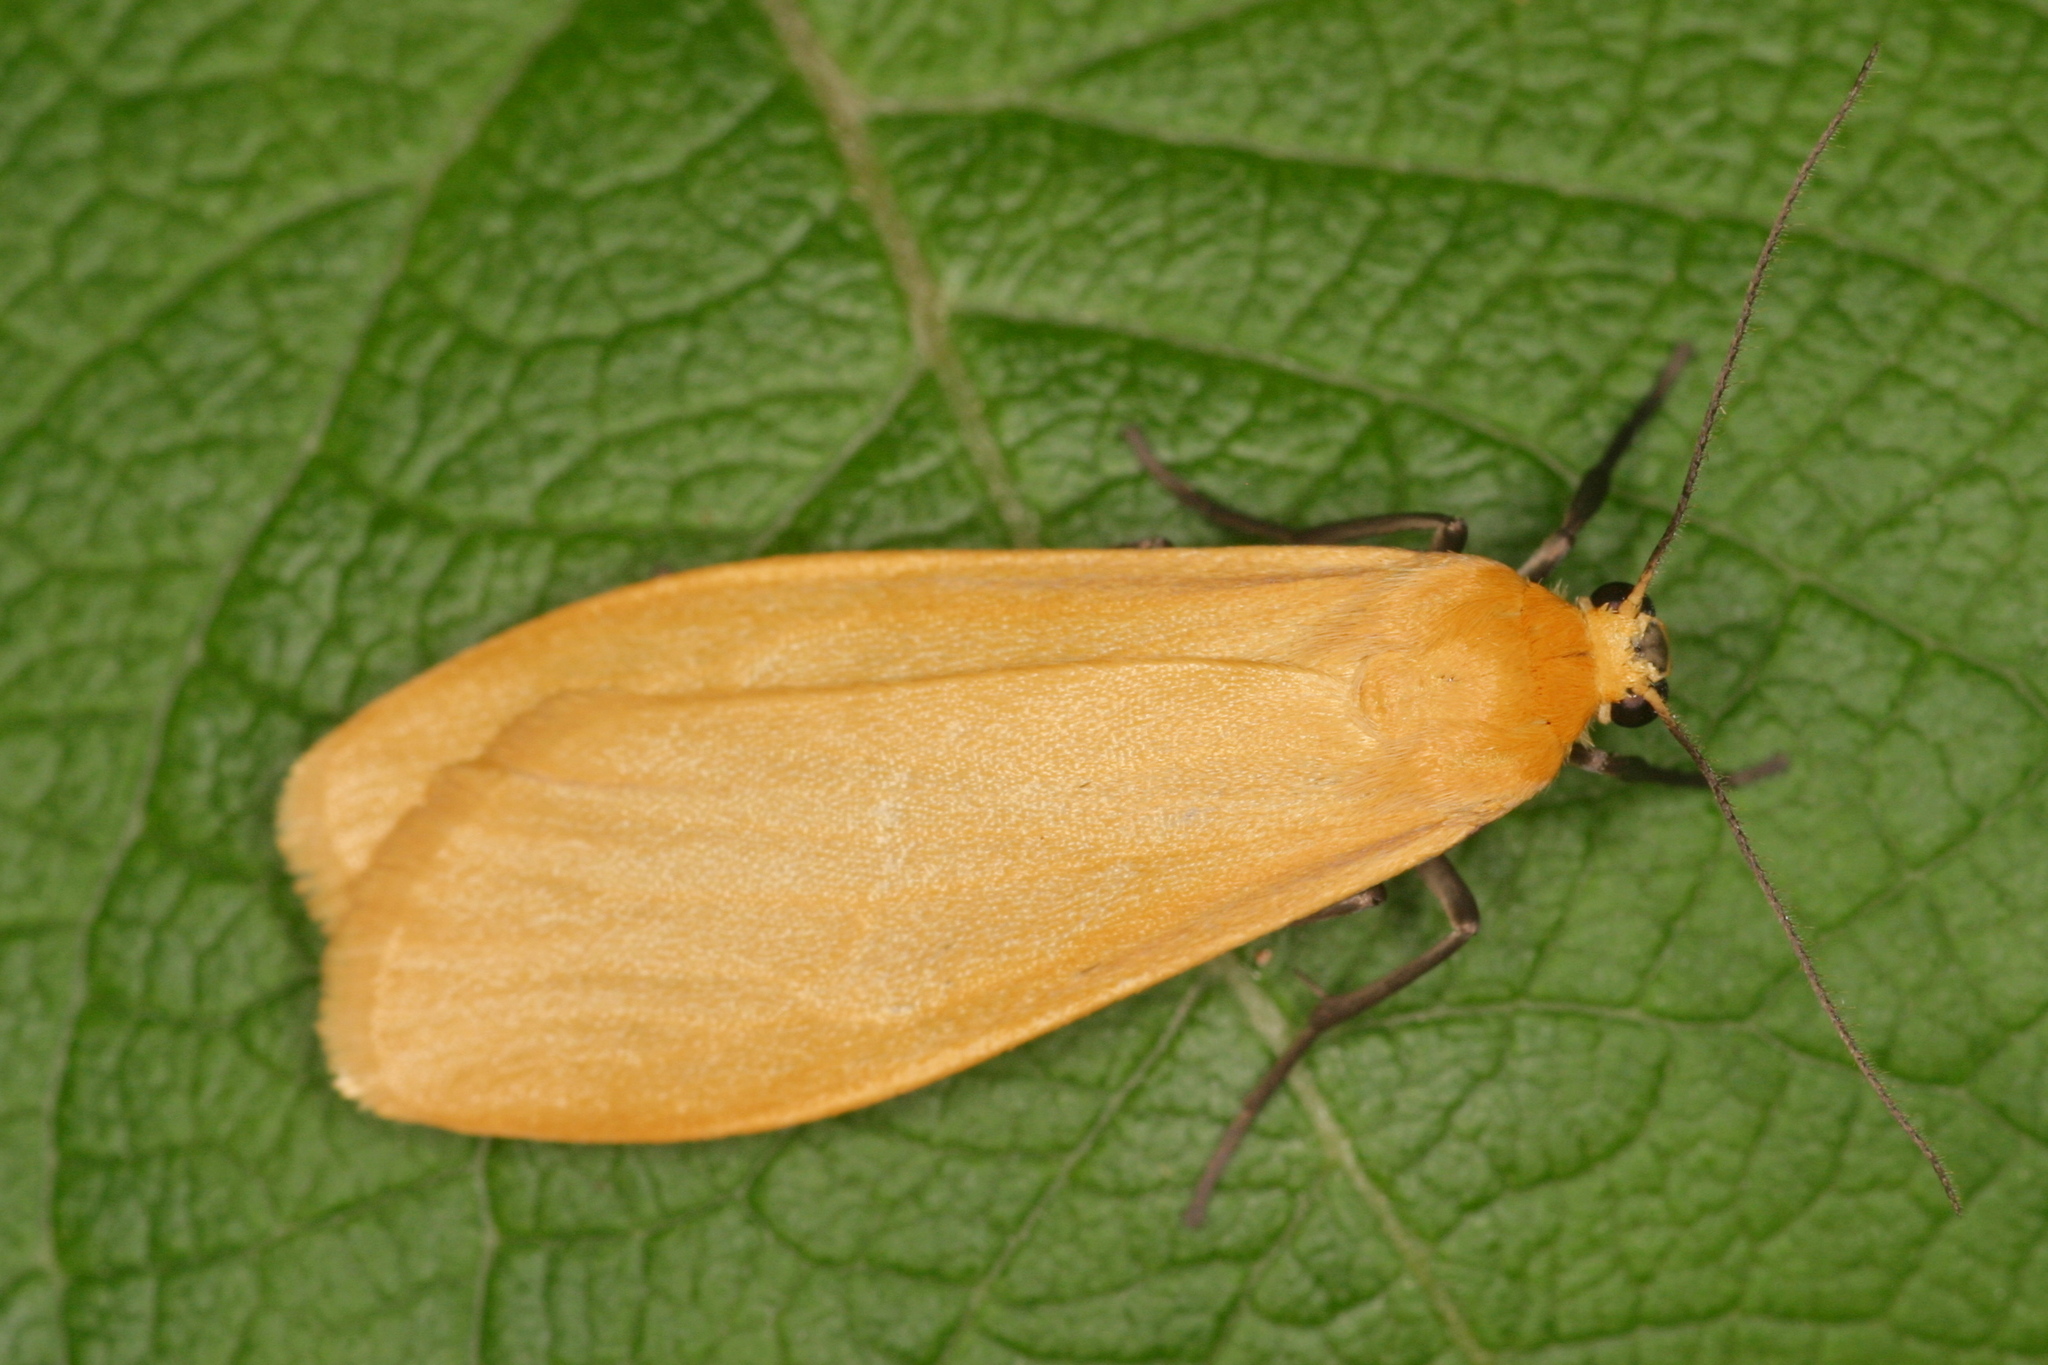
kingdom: Animalia
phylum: Arthropoda
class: Insecta
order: Lepidoptera
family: Erebidae
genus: Wittia
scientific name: Wittia sororcula
